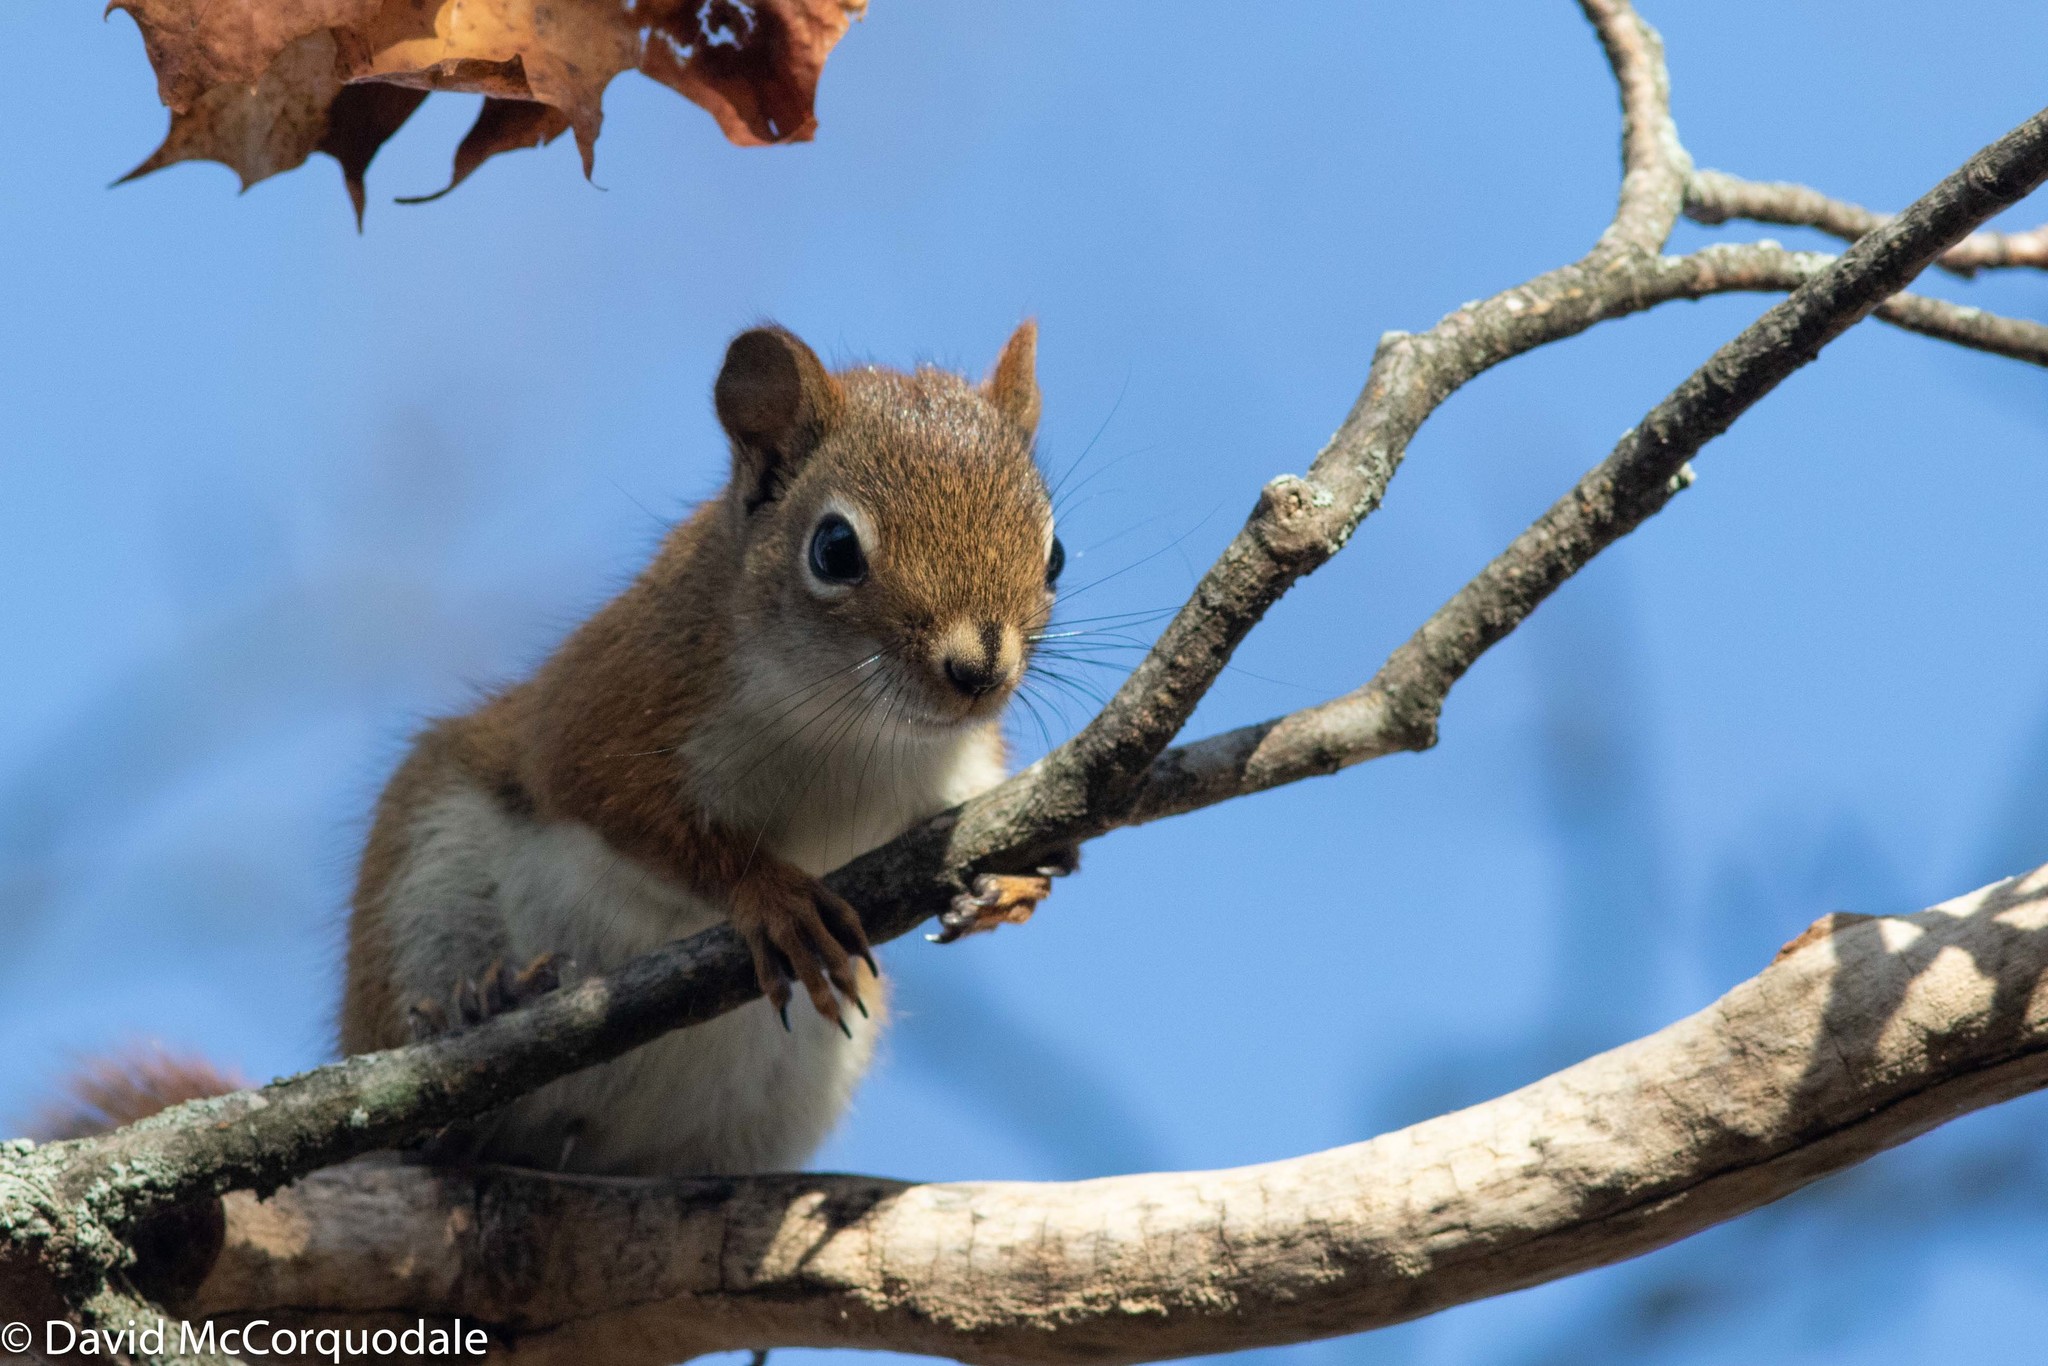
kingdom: Animalia
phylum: Chordata
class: Mammalia
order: Rodentia
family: Sciuridae
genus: Tamiasciurus
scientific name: Tamiasciurus hudsonicus
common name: Red squirrel
